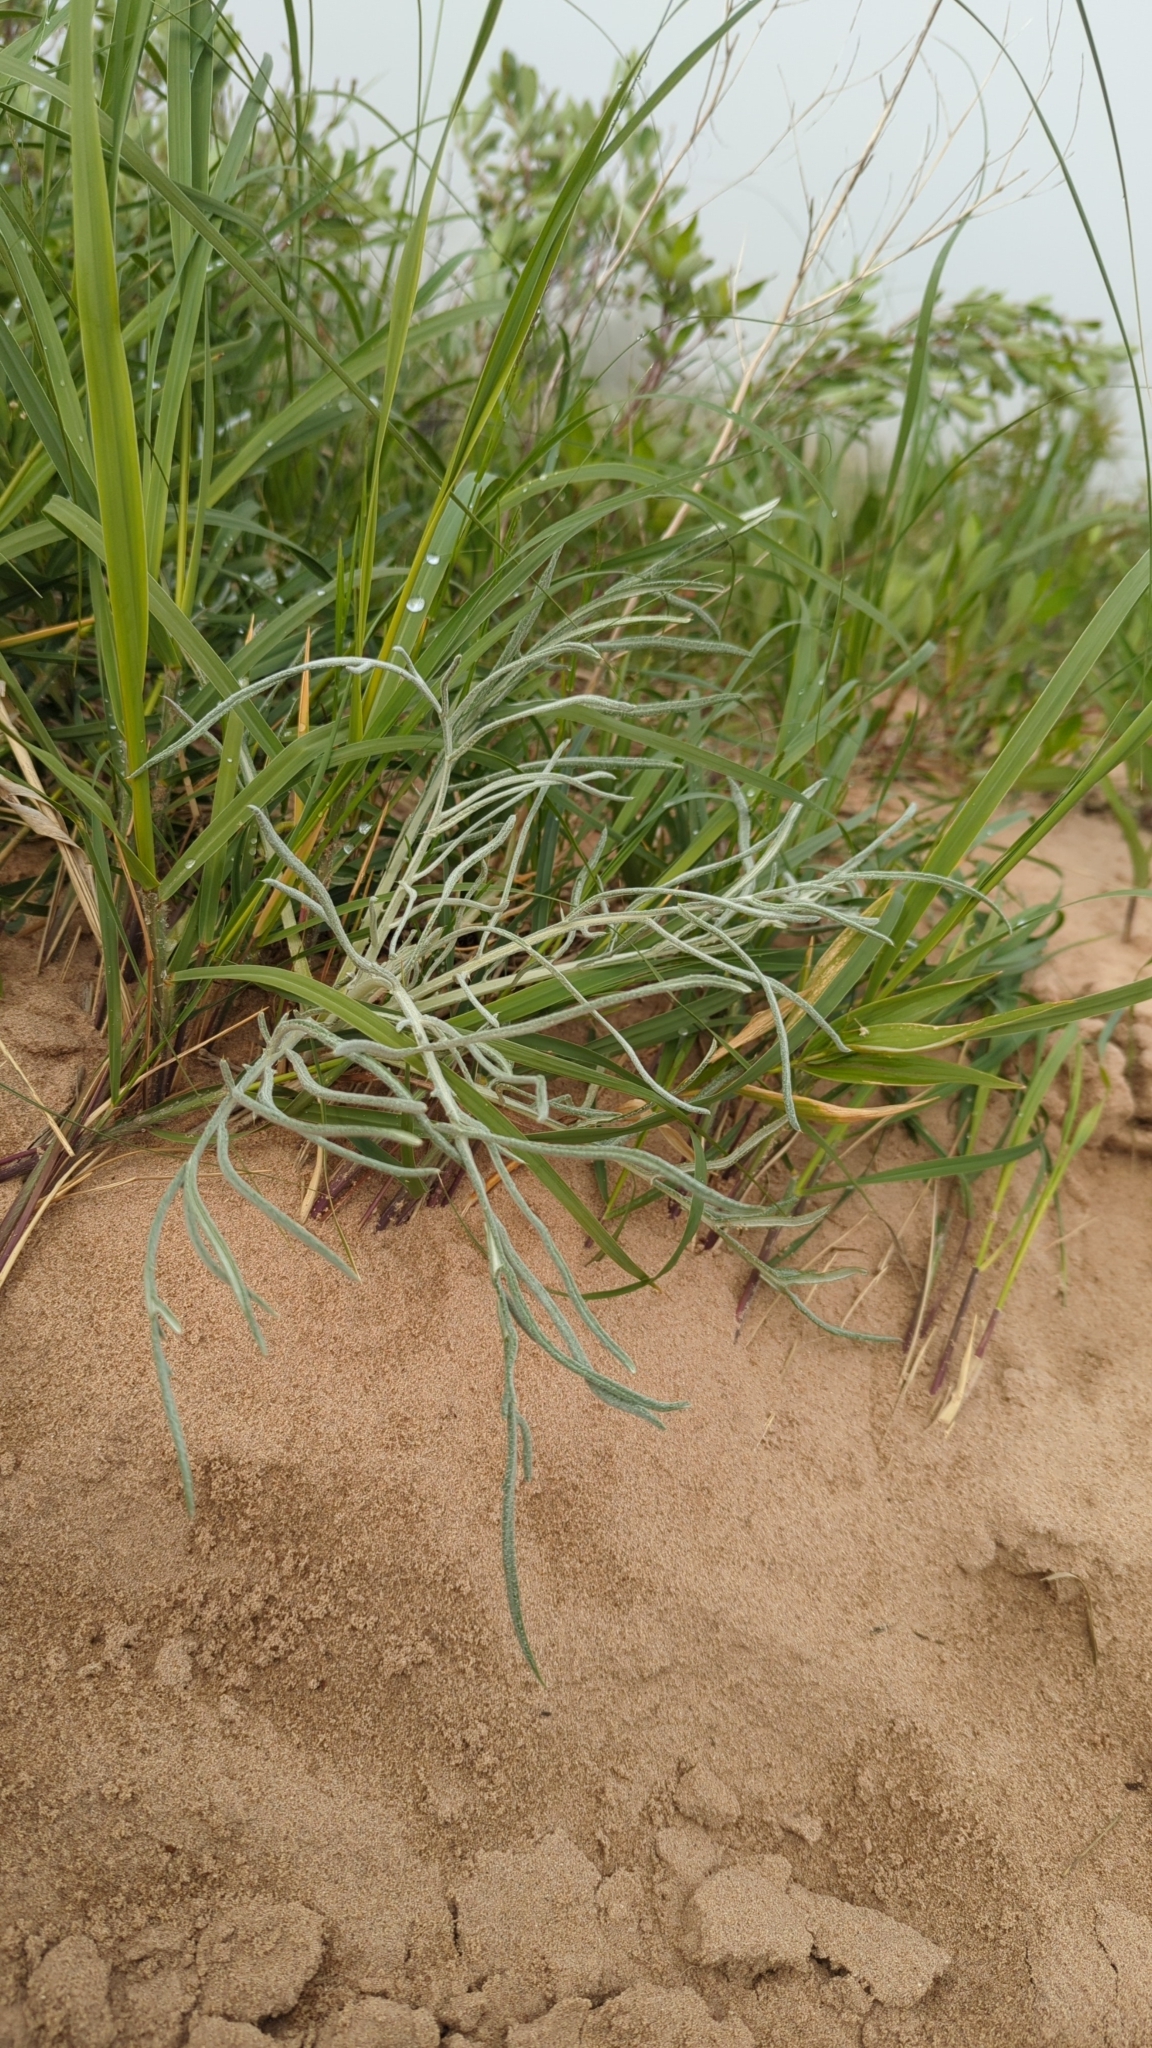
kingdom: Plantae
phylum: Tracheophyta
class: Magnoliopsida
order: Asterales
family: Asteraceae
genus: Cirsium
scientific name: Cirsium pitcheri
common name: Dune thistle
